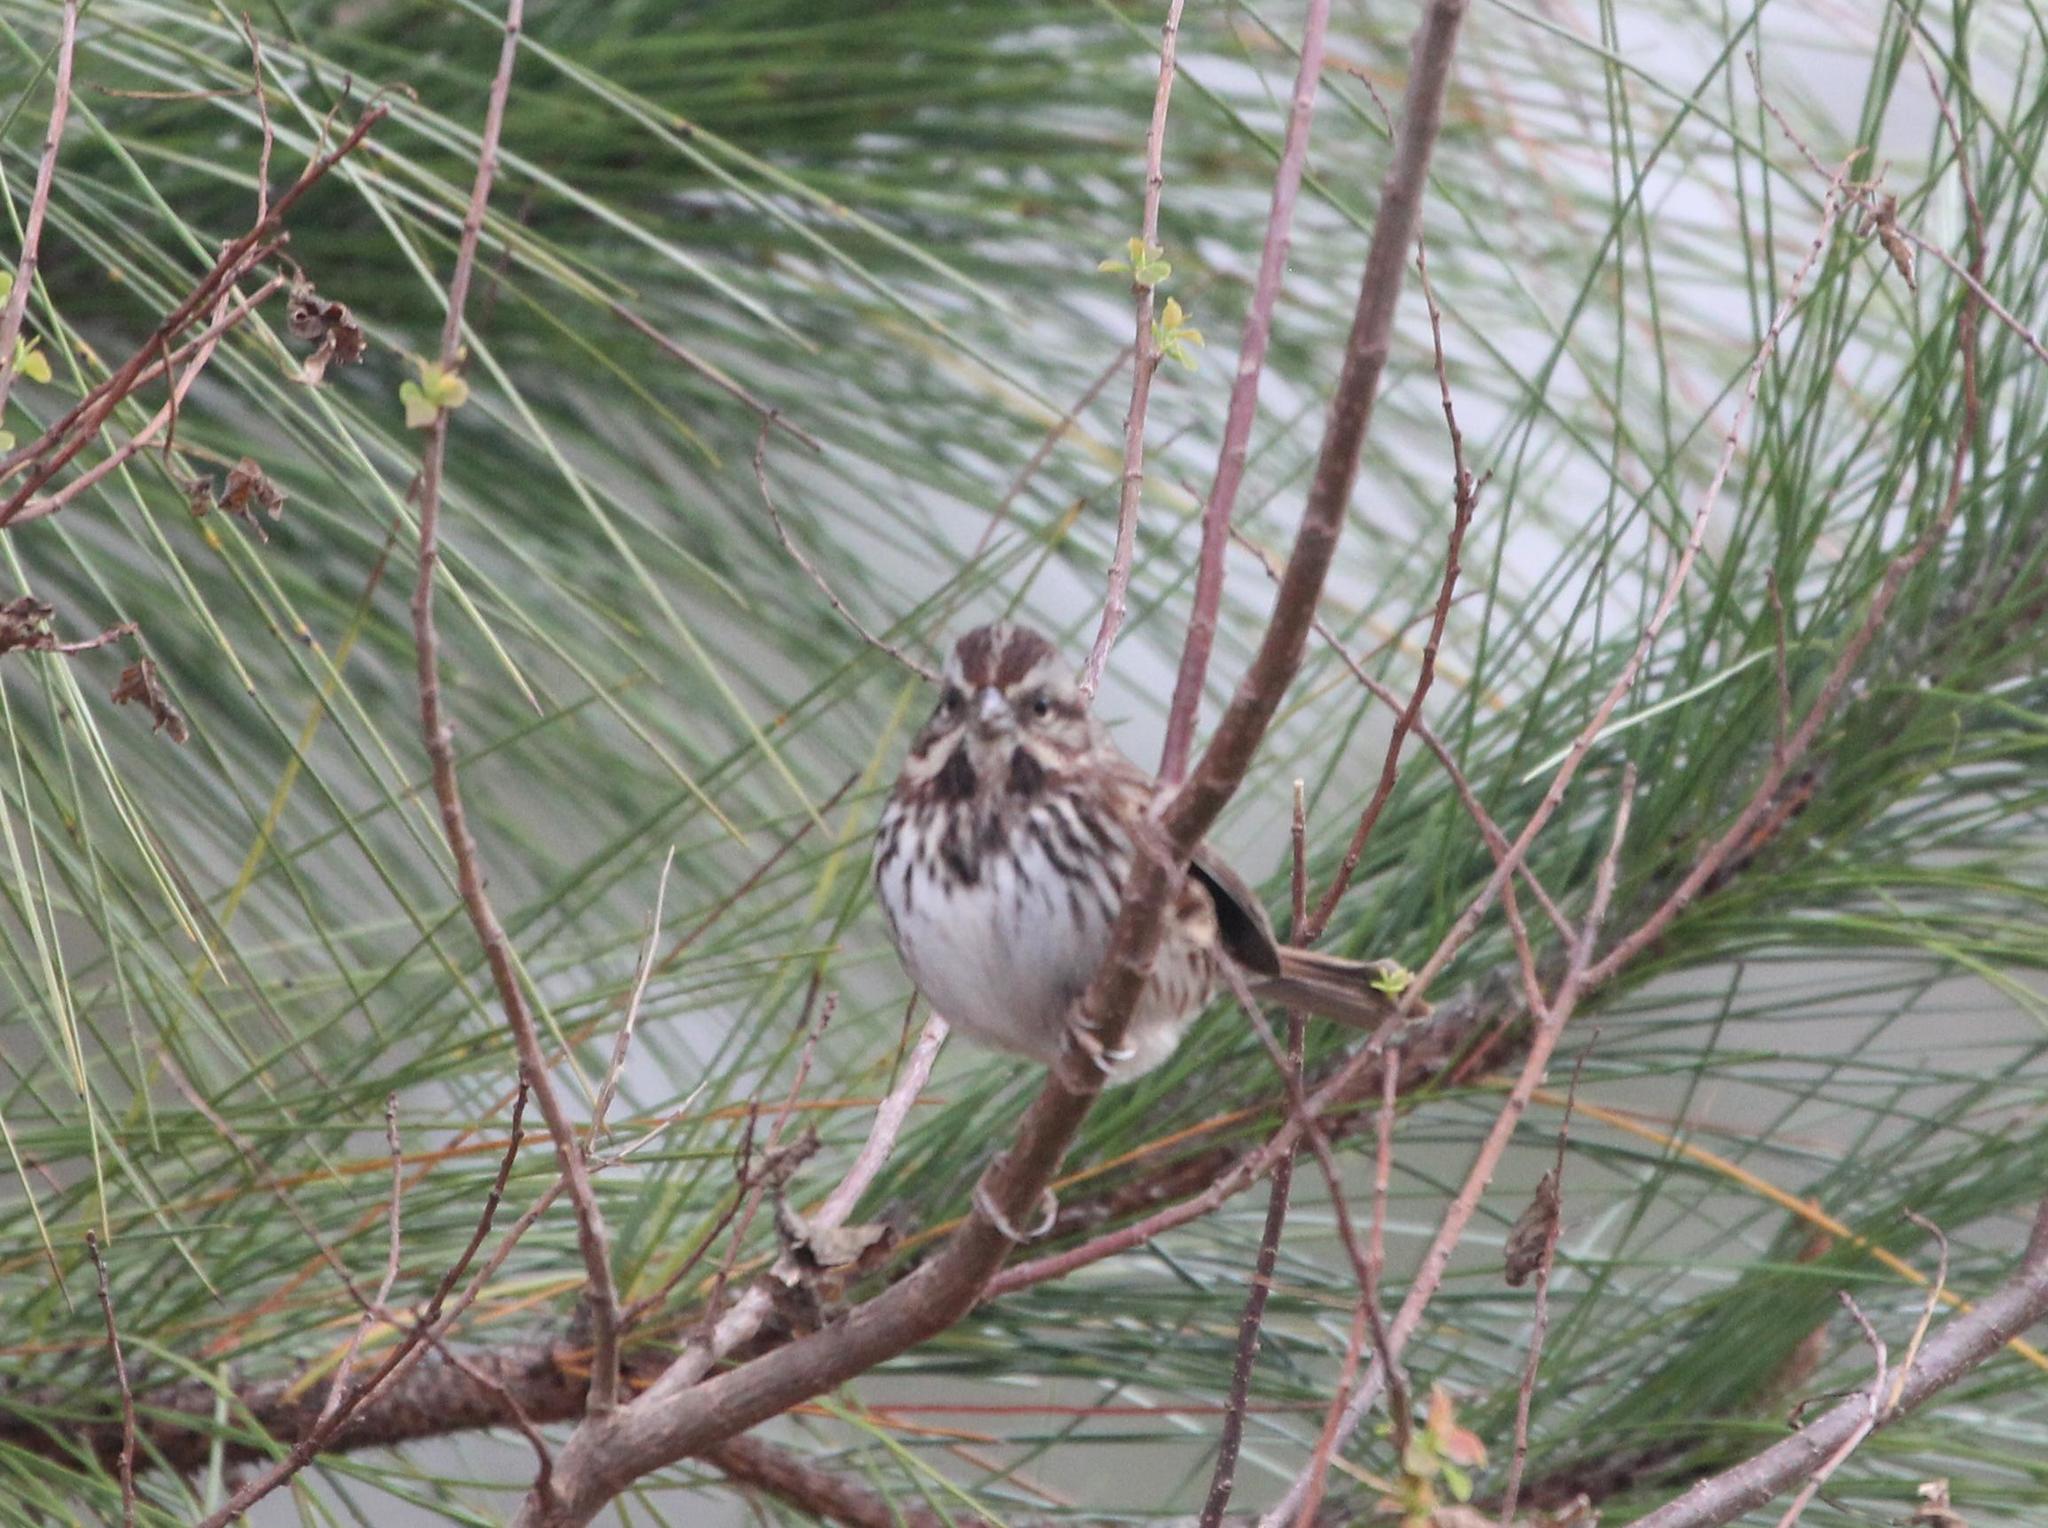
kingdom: Animalia
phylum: Chordata
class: Aves
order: Passeriformes
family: Passerellidae
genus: Melospiza
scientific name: Melospiza melodia
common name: Song sparrow
